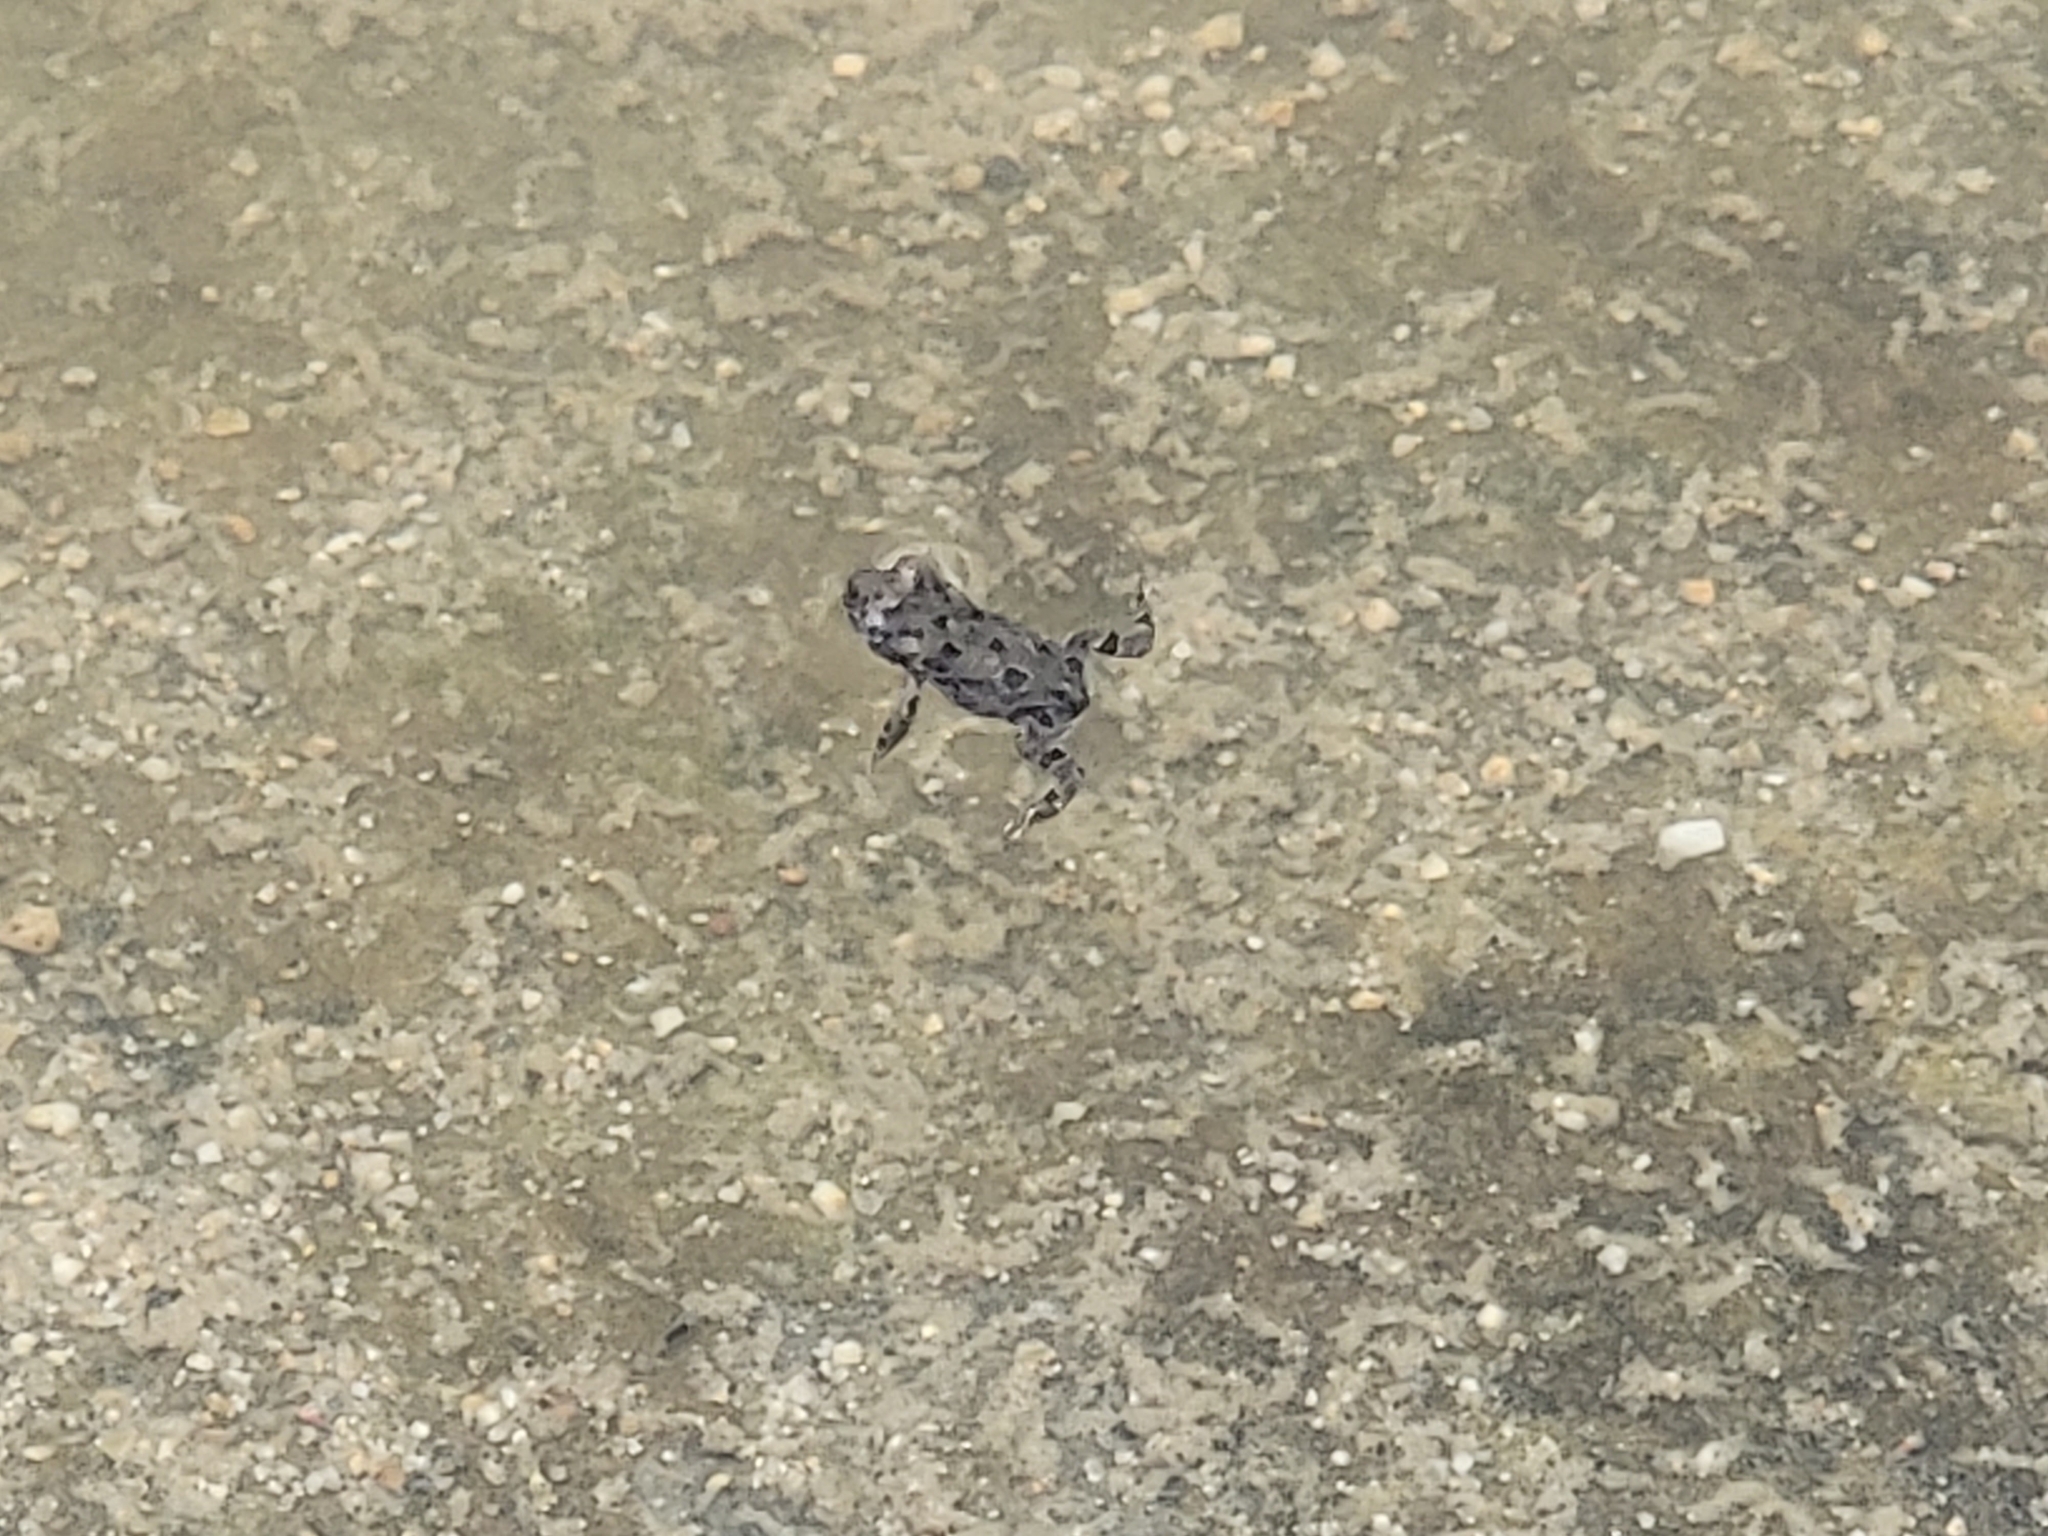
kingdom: Animalia
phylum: Chordata
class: Amphibia
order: Anura
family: Bufonidae
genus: Anaxyrus
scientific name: Anaxyrus boreas
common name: Western toad
